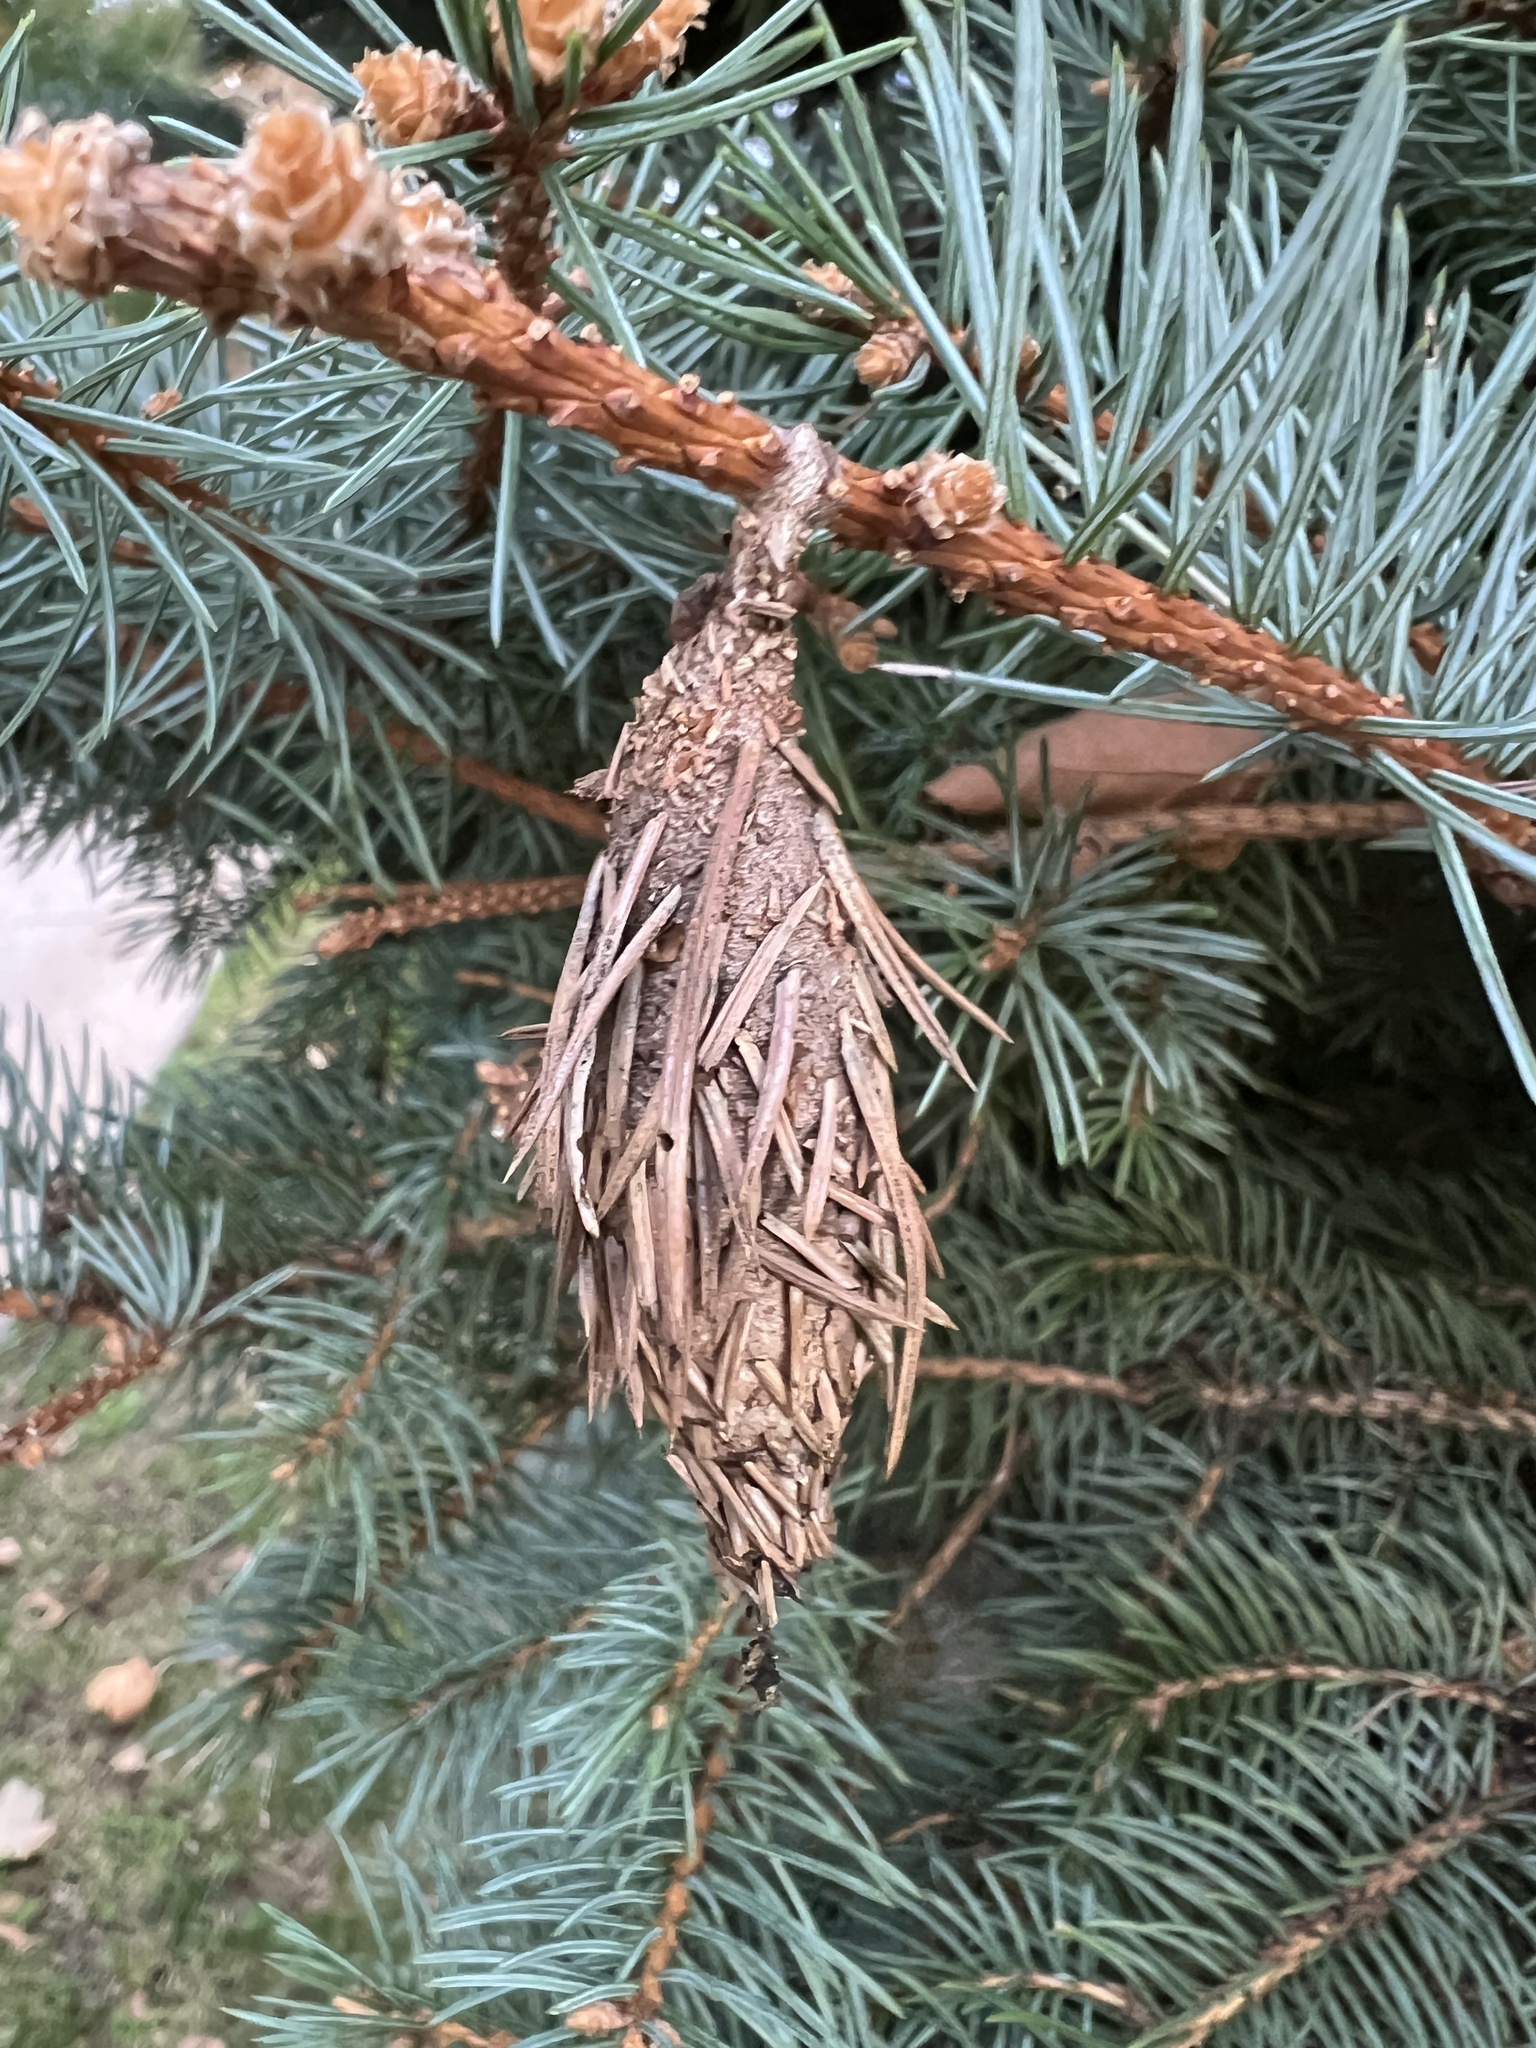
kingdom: Animalia
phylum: Arthropoda
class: Insecta
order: Lepidoptera
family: Psychidae
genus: Thyridopteryx
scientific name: Thyridopteryx ephemeraeformis
